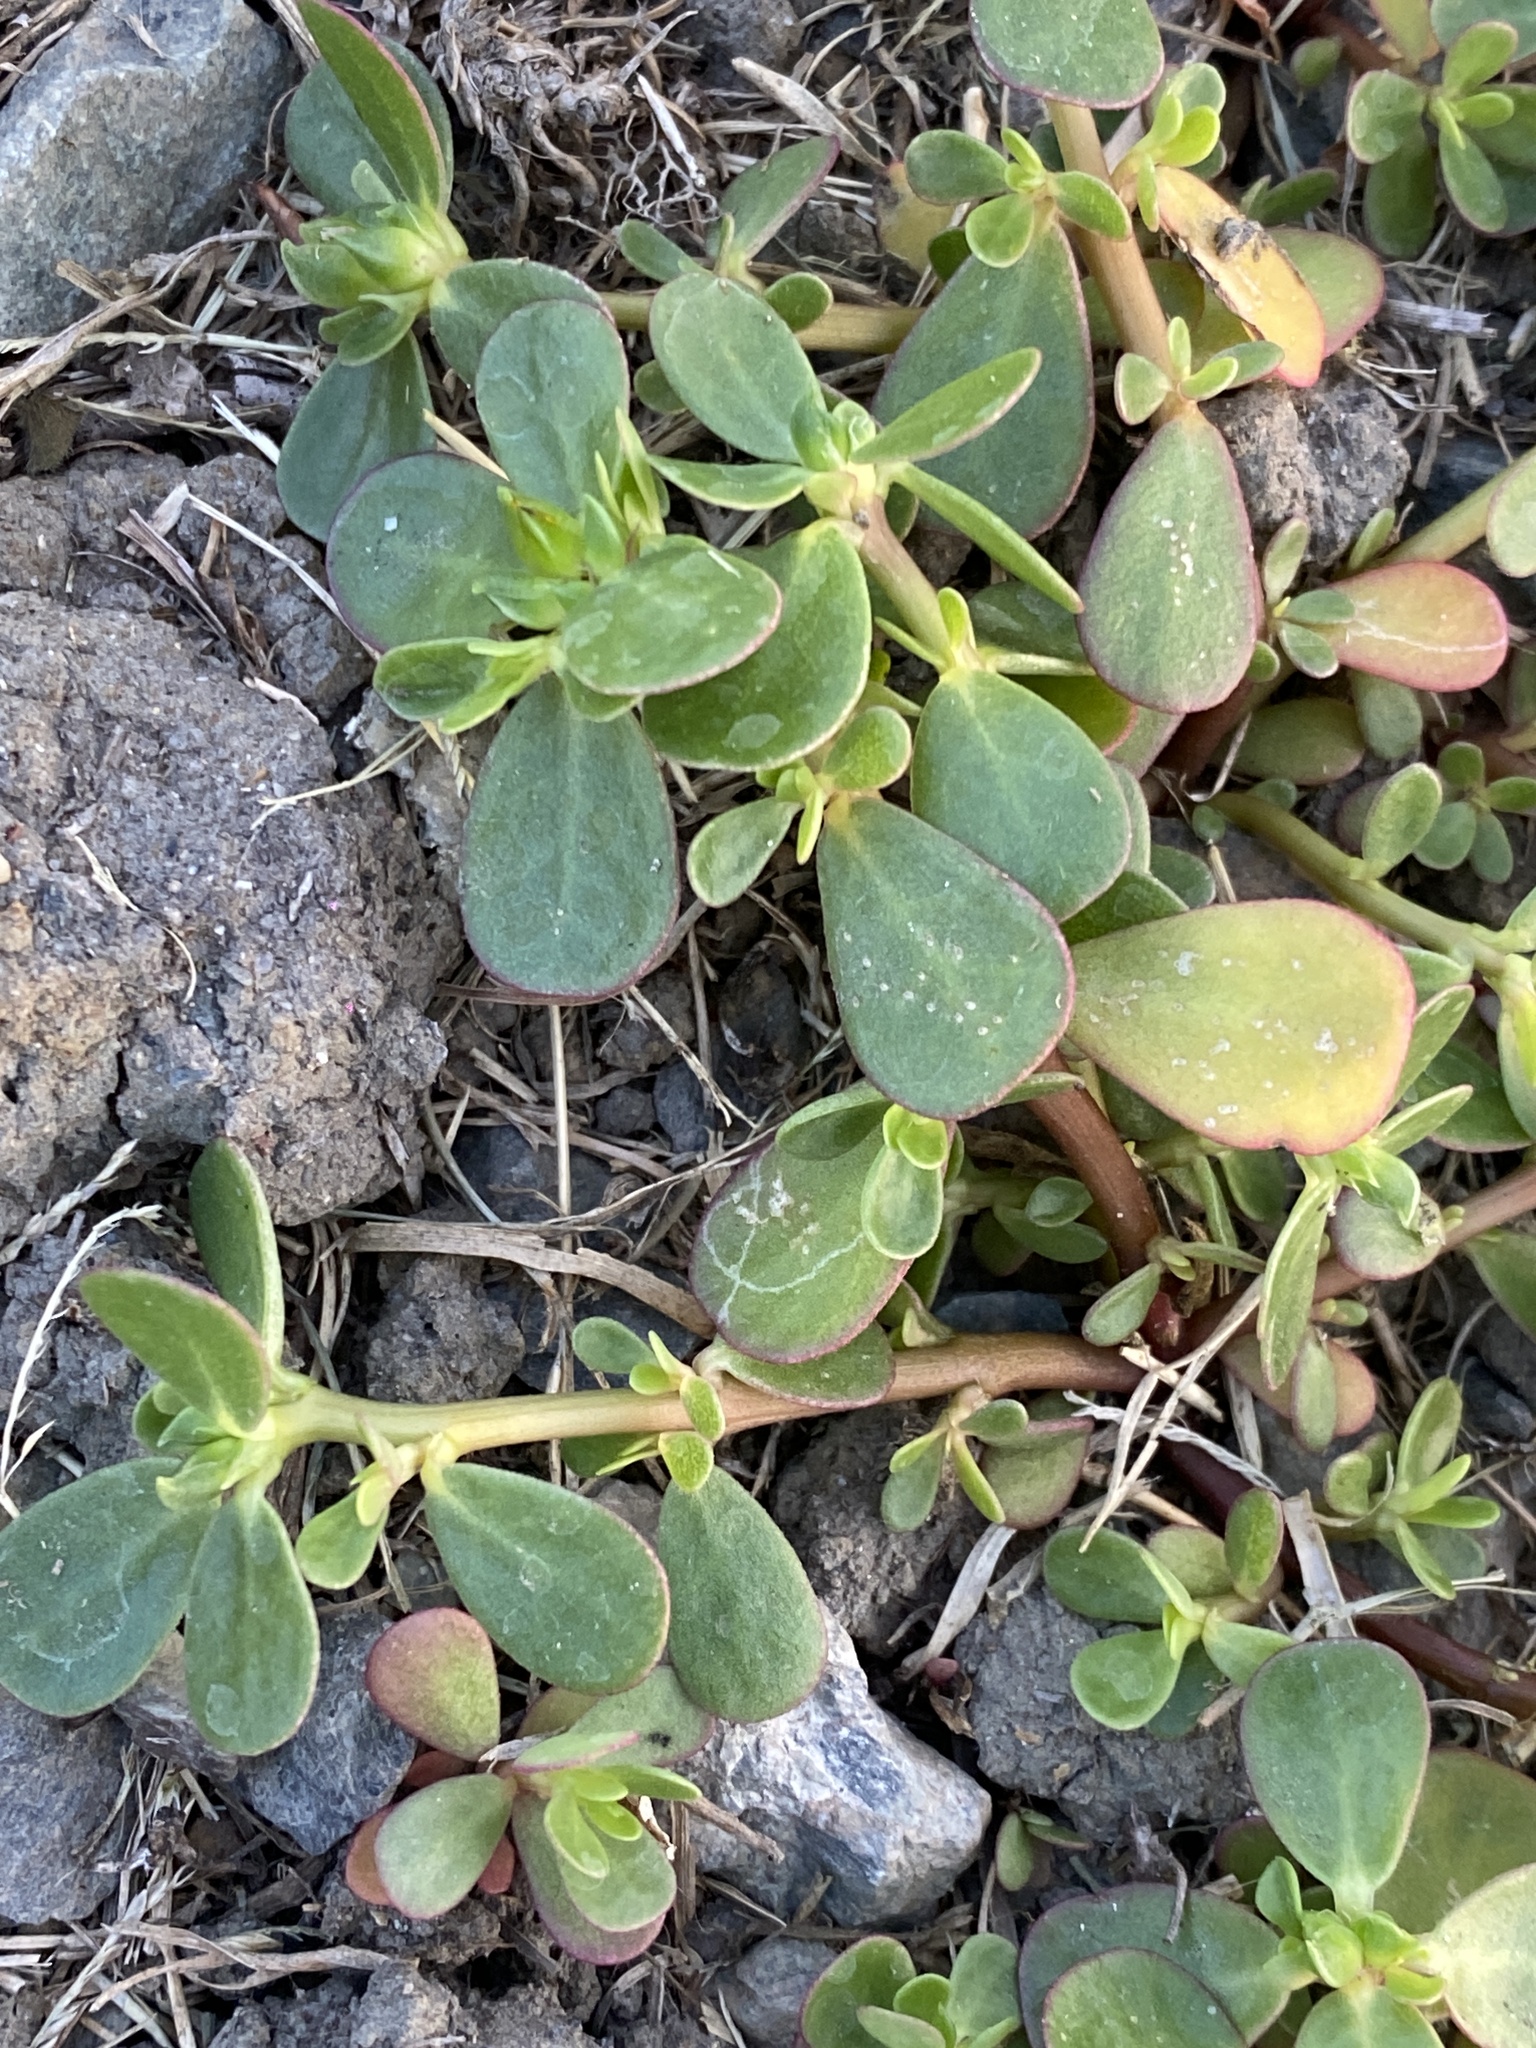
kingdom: Plantae
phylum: Tracheophyta
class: Magnoliopsida
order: Caryophyllales
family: Portulacaceae
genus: Portulaca
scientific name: Portulaca oleracea
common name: Common purslane
